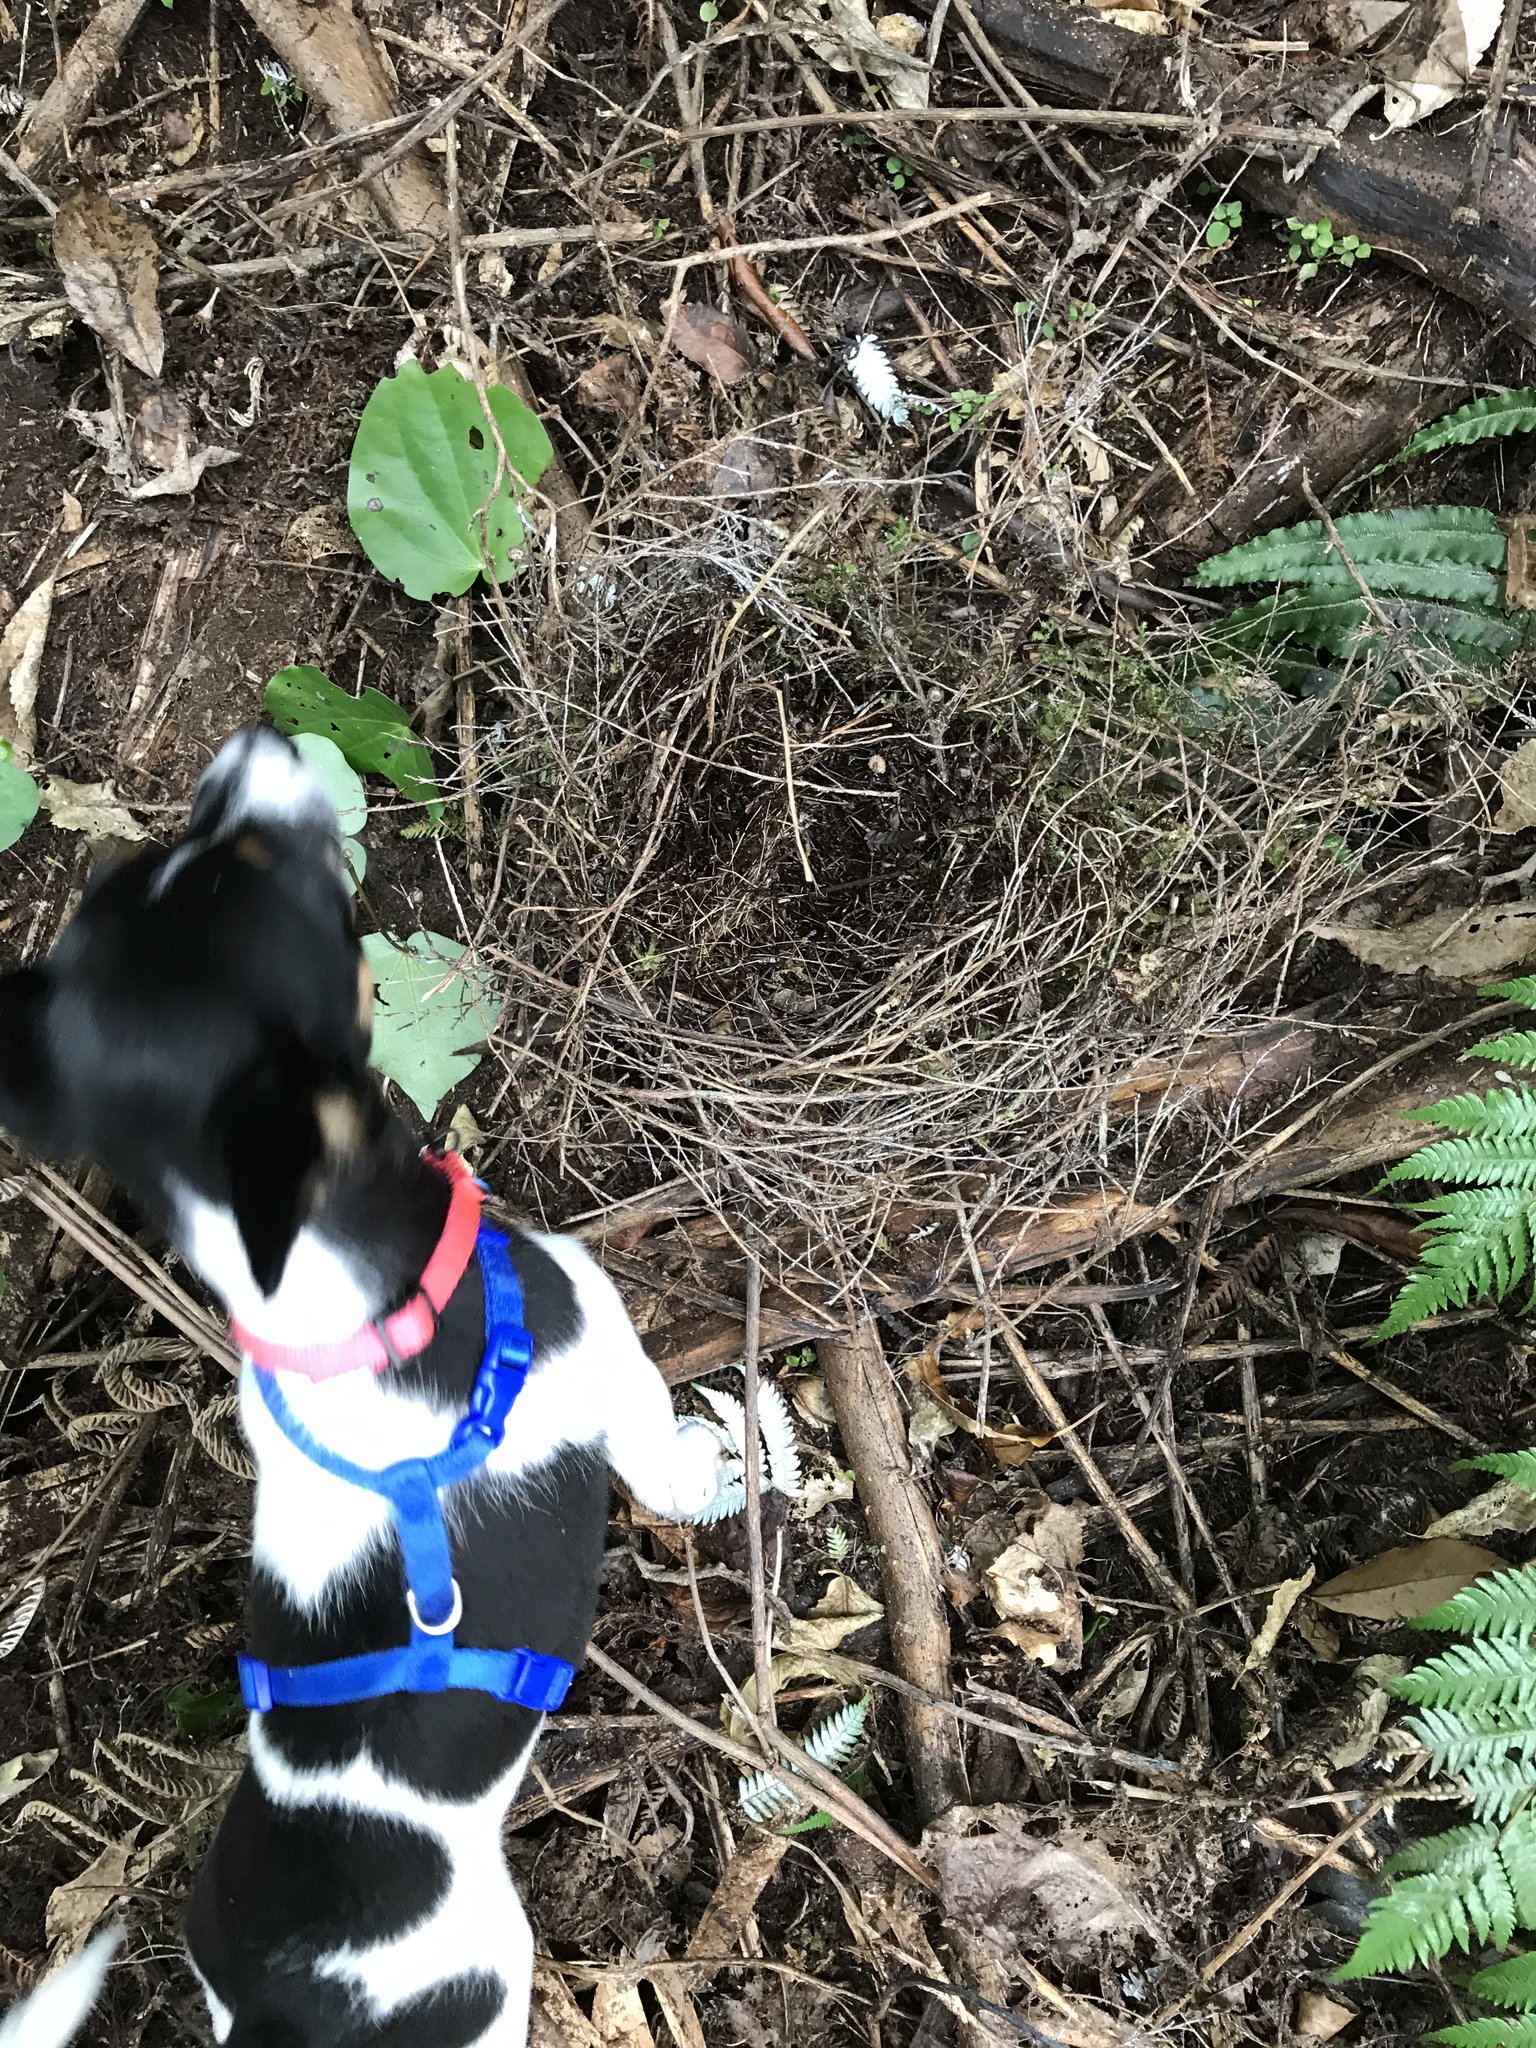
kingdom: Animalia
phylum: Chordata
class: Aves
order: Passeriformes
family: Meliphagidae
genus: Prosthemadera
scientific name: Prosthemadera novaeseelandiae
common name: Tui
